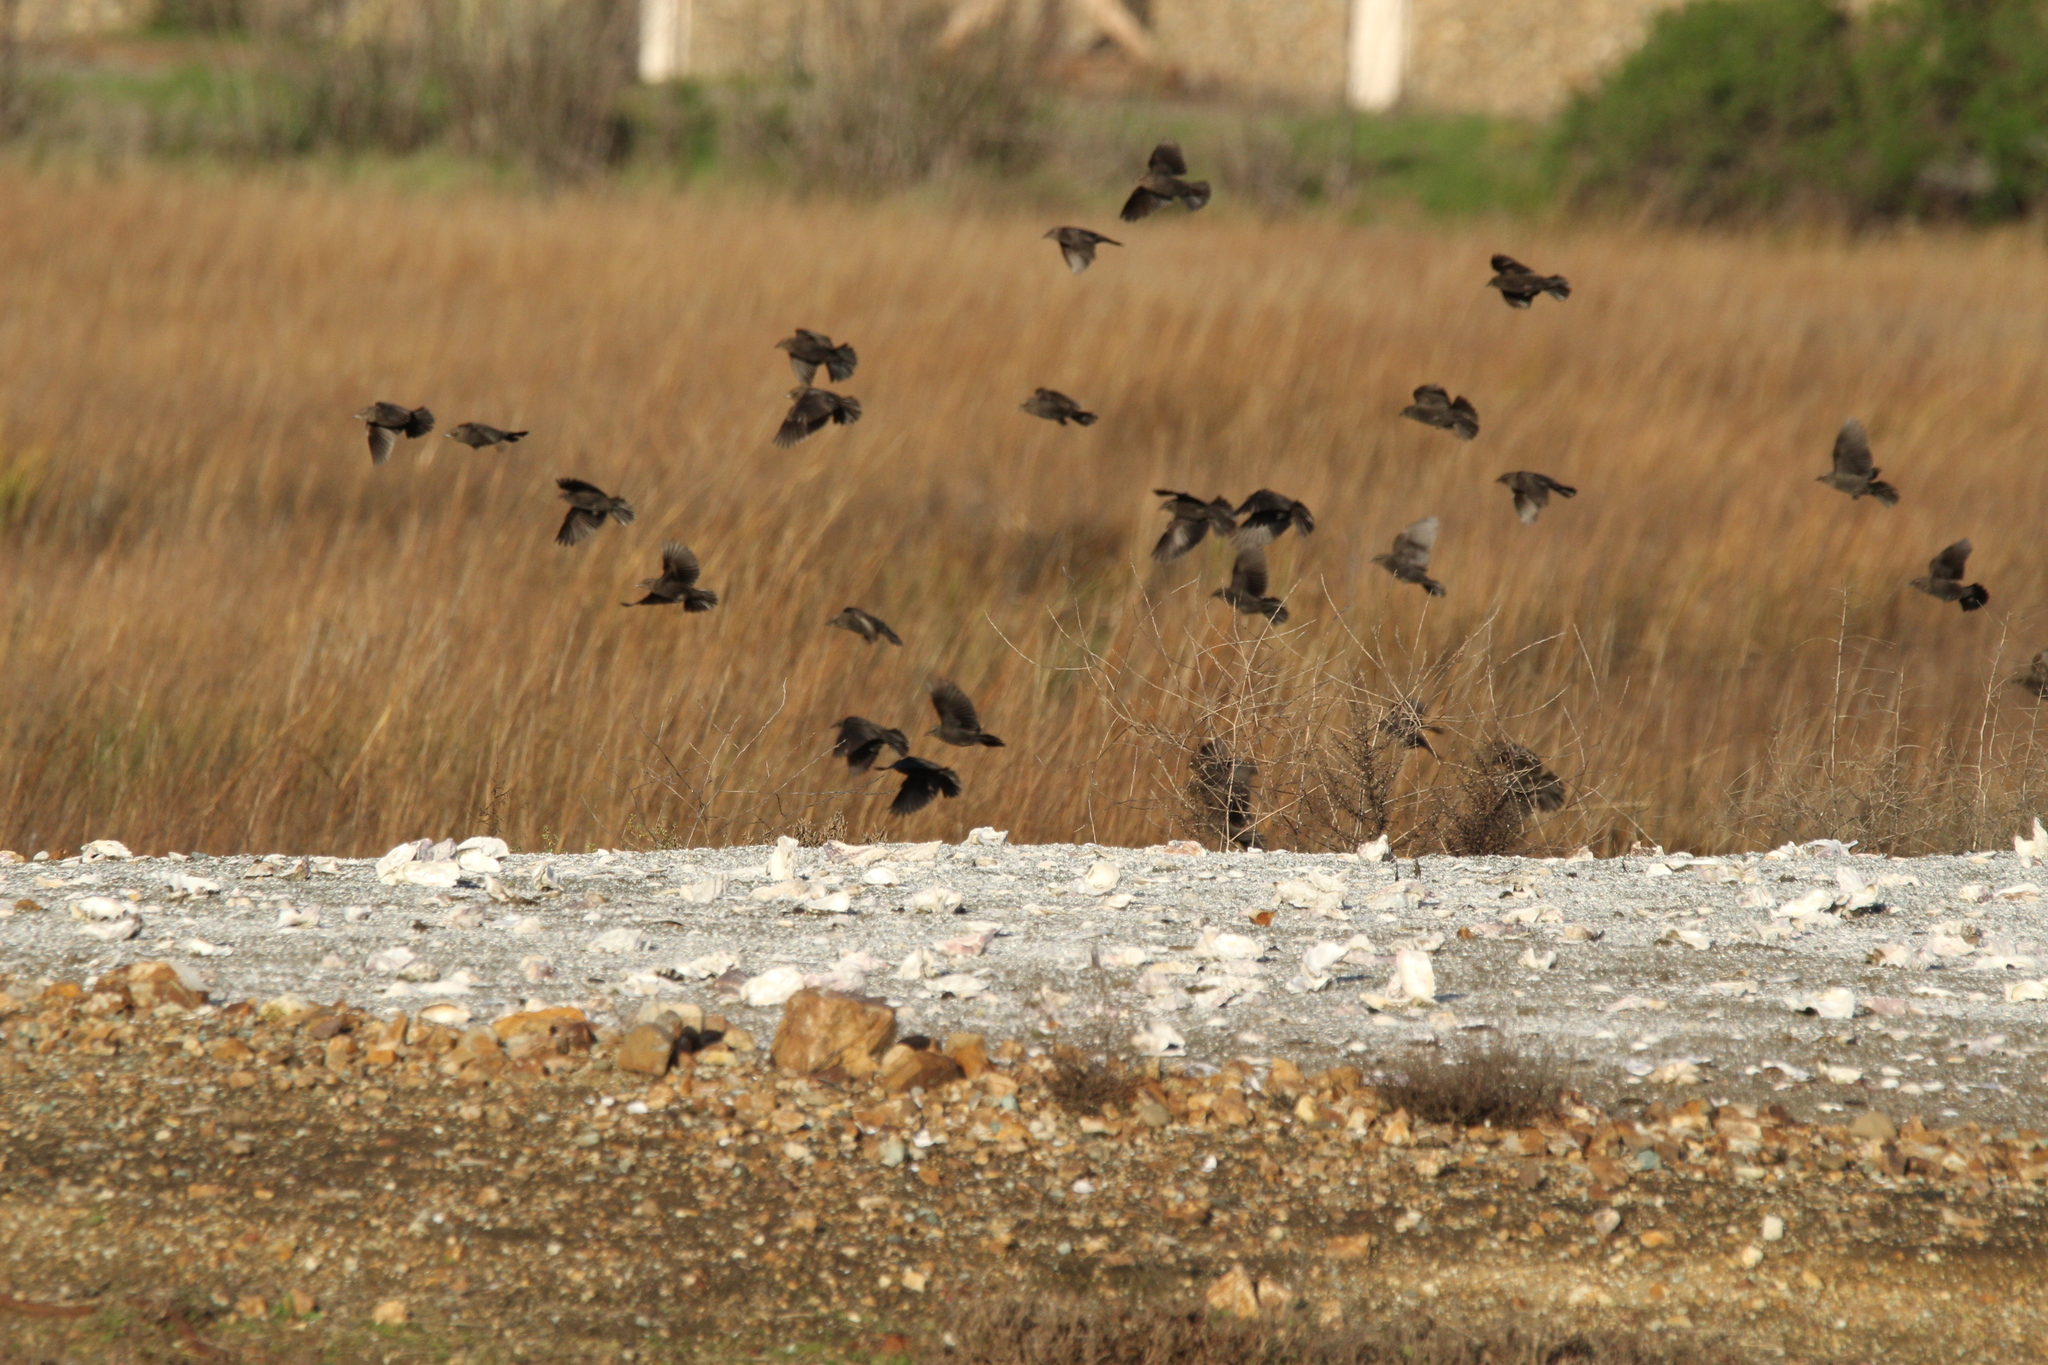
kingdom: Animalia
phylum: Chordata
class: Aves
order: Passeriformes
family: Icteridae
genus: Agelaius
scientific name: Agelaius phoeniceus
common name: Red-winged blackbird
